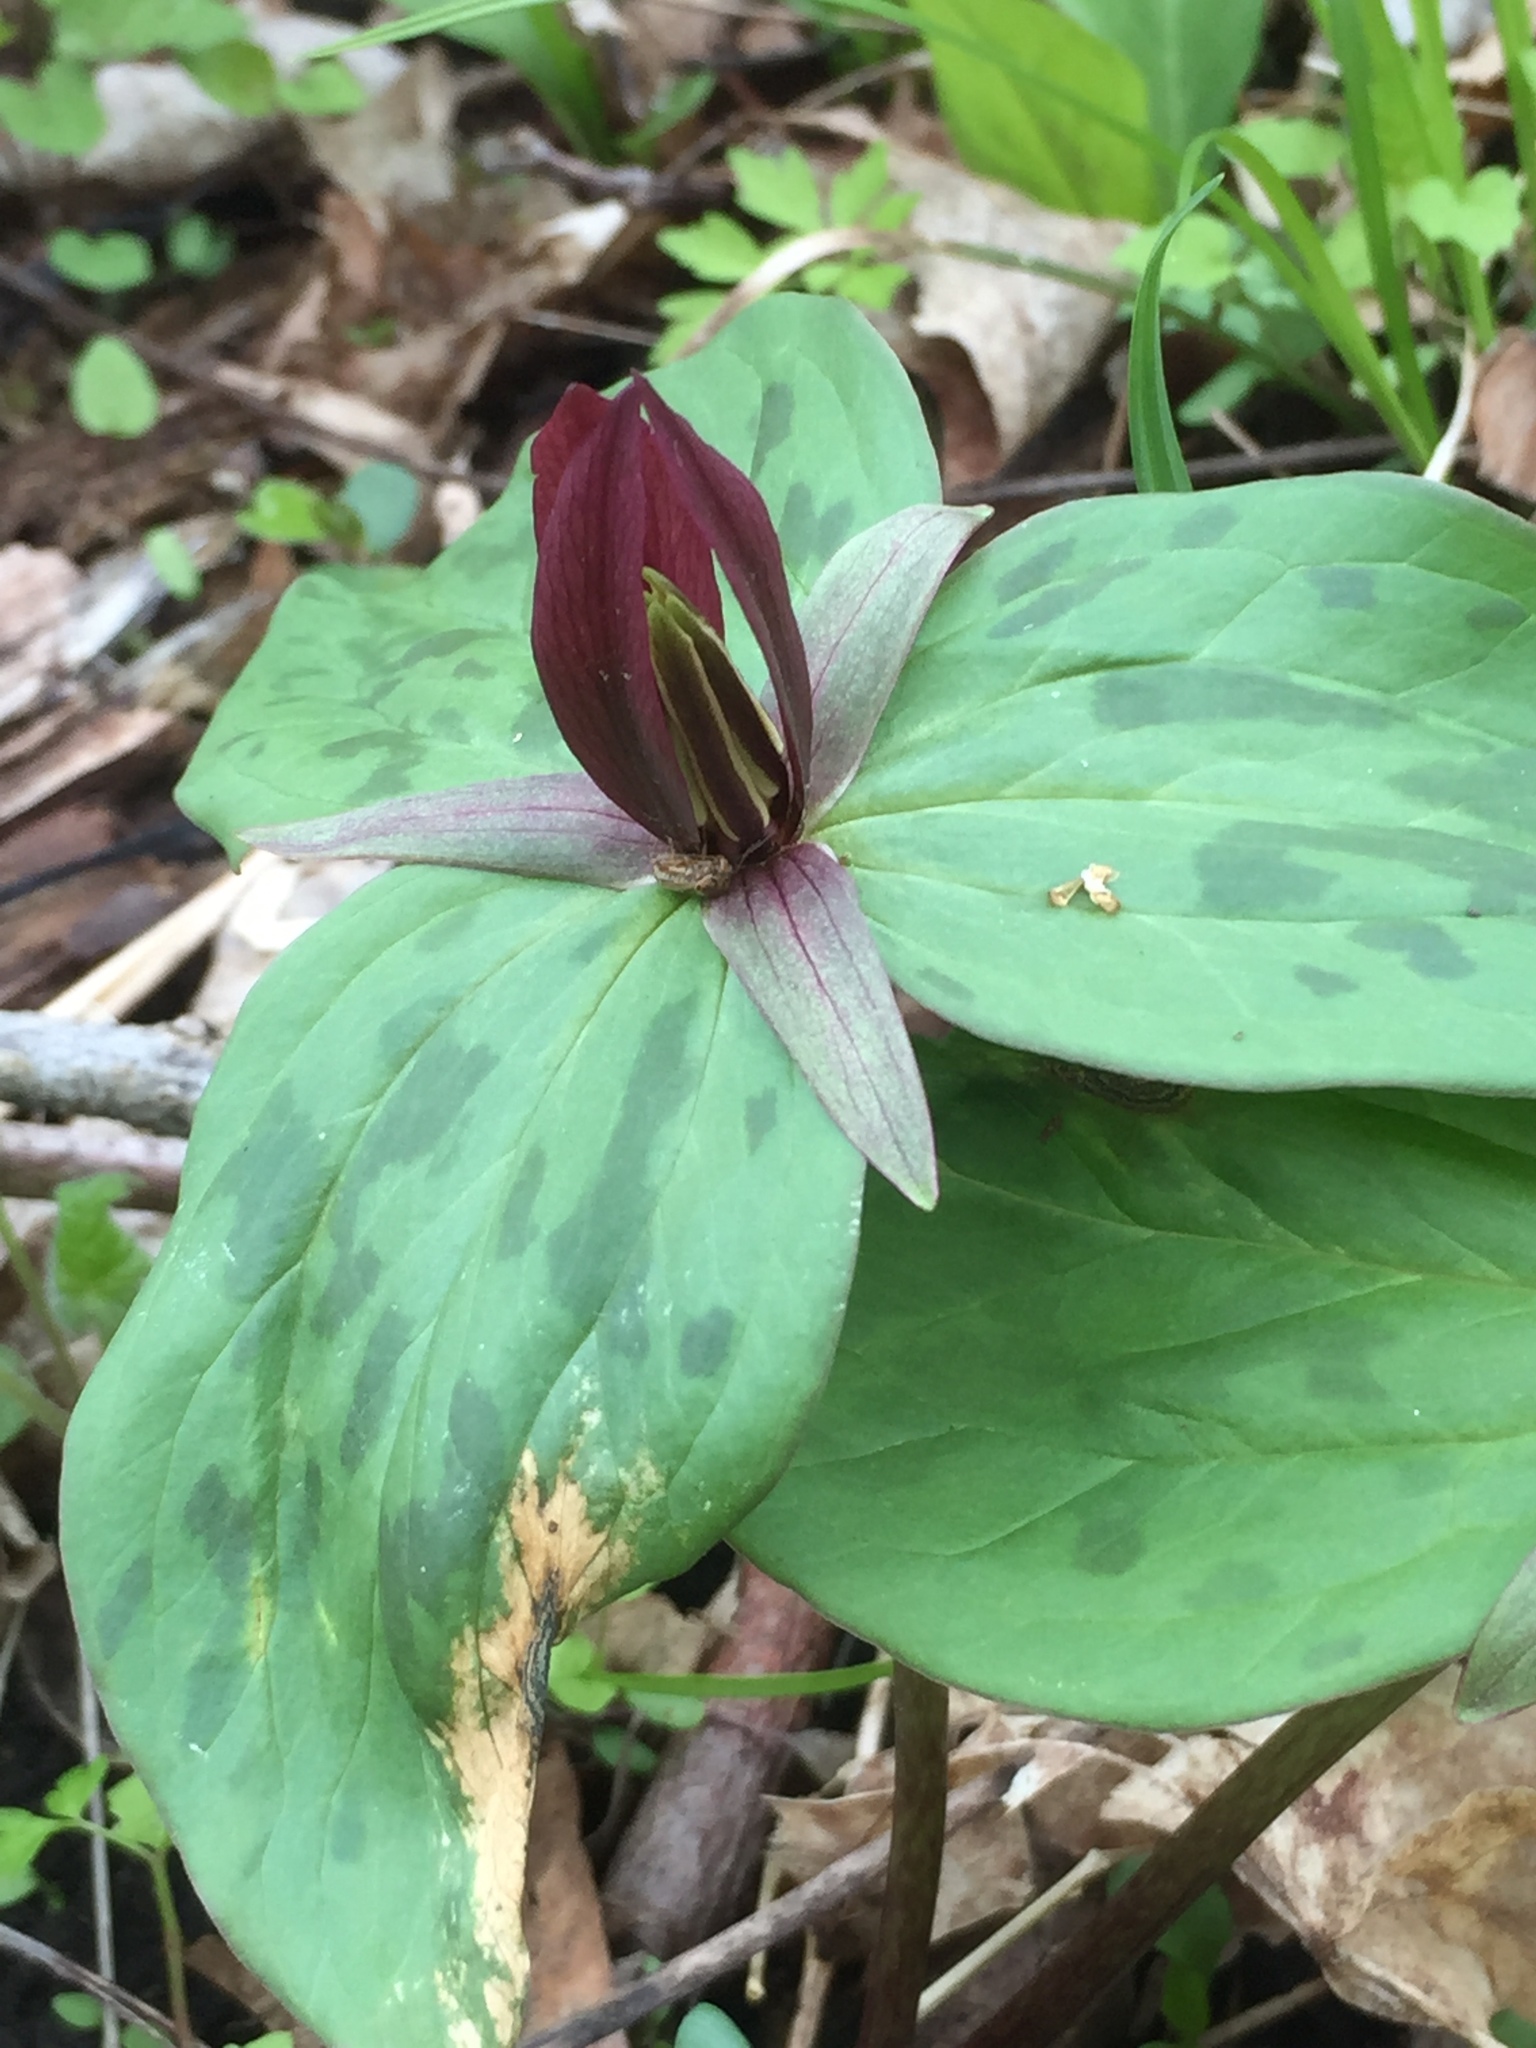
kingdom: Plantae
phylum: Tracheophyta
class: Liliopsida
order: Liliales
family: Melanthiaceae
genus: Trillium
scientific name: Trillium sessile
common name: Sessile trillium
